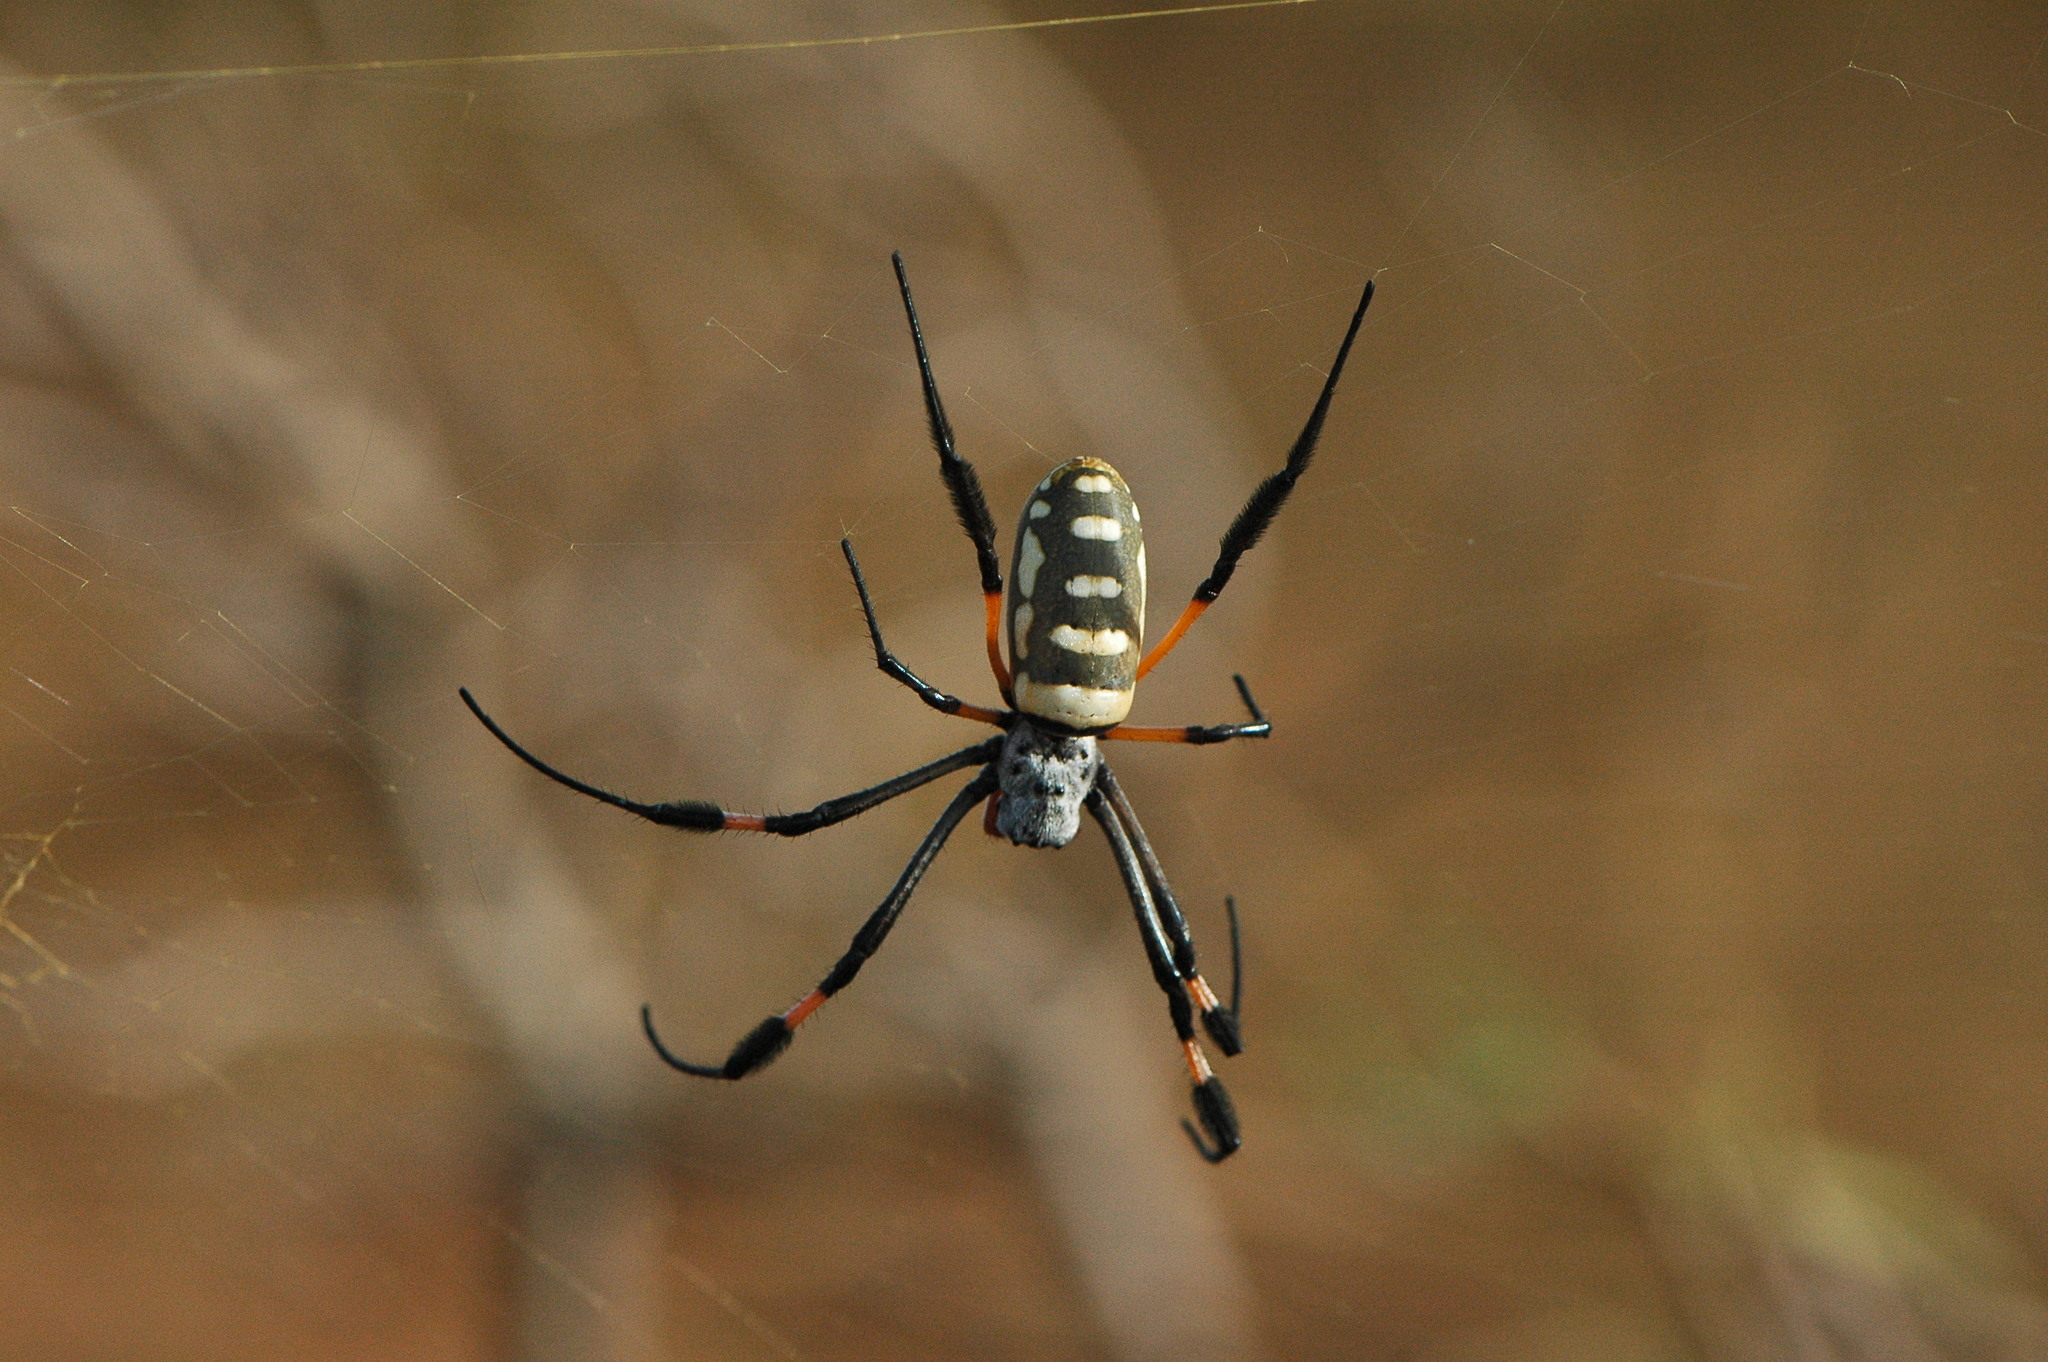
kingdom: Animalia
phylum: Arthropoda
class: Arachnida
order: Araneae
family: Araneidae
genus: Trichonephila
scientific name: Trichonephila senegalensis
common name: Banded golden orb weaver
